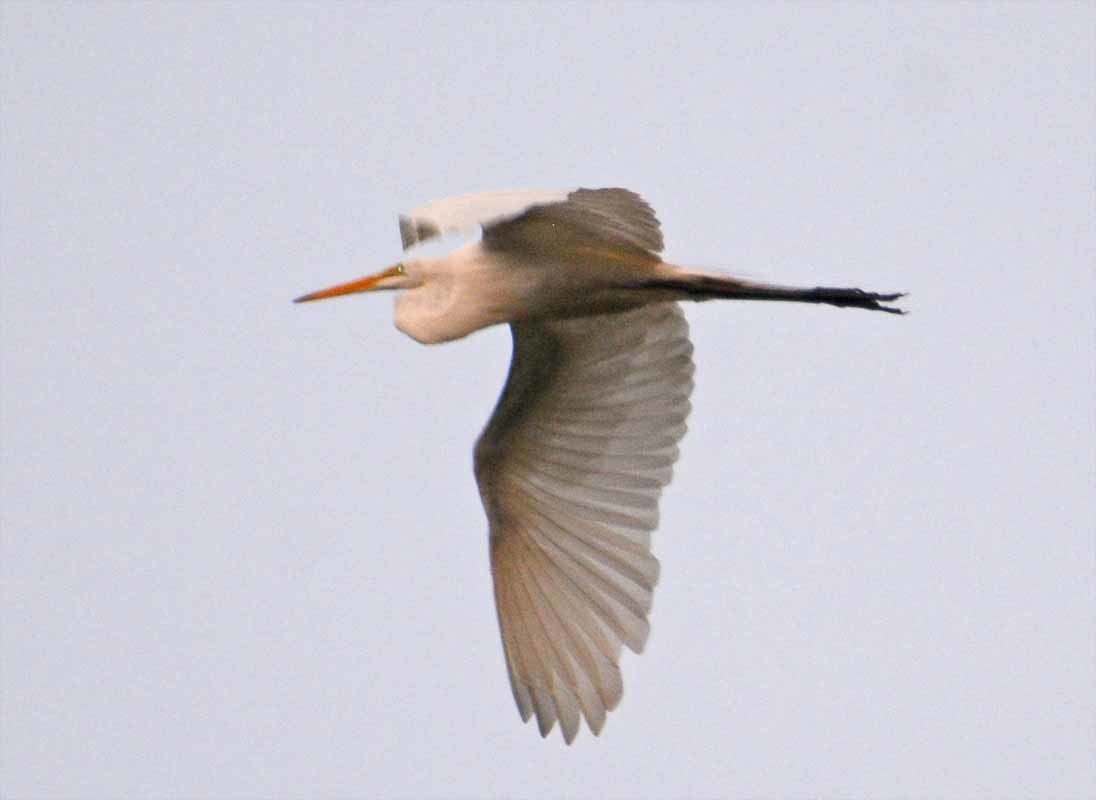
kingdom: Animalia
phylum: Chordata
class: Aves
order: Pelecaniformes
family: Ardeidae
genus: Ardea
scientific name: Ardea alba
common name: Great egret
